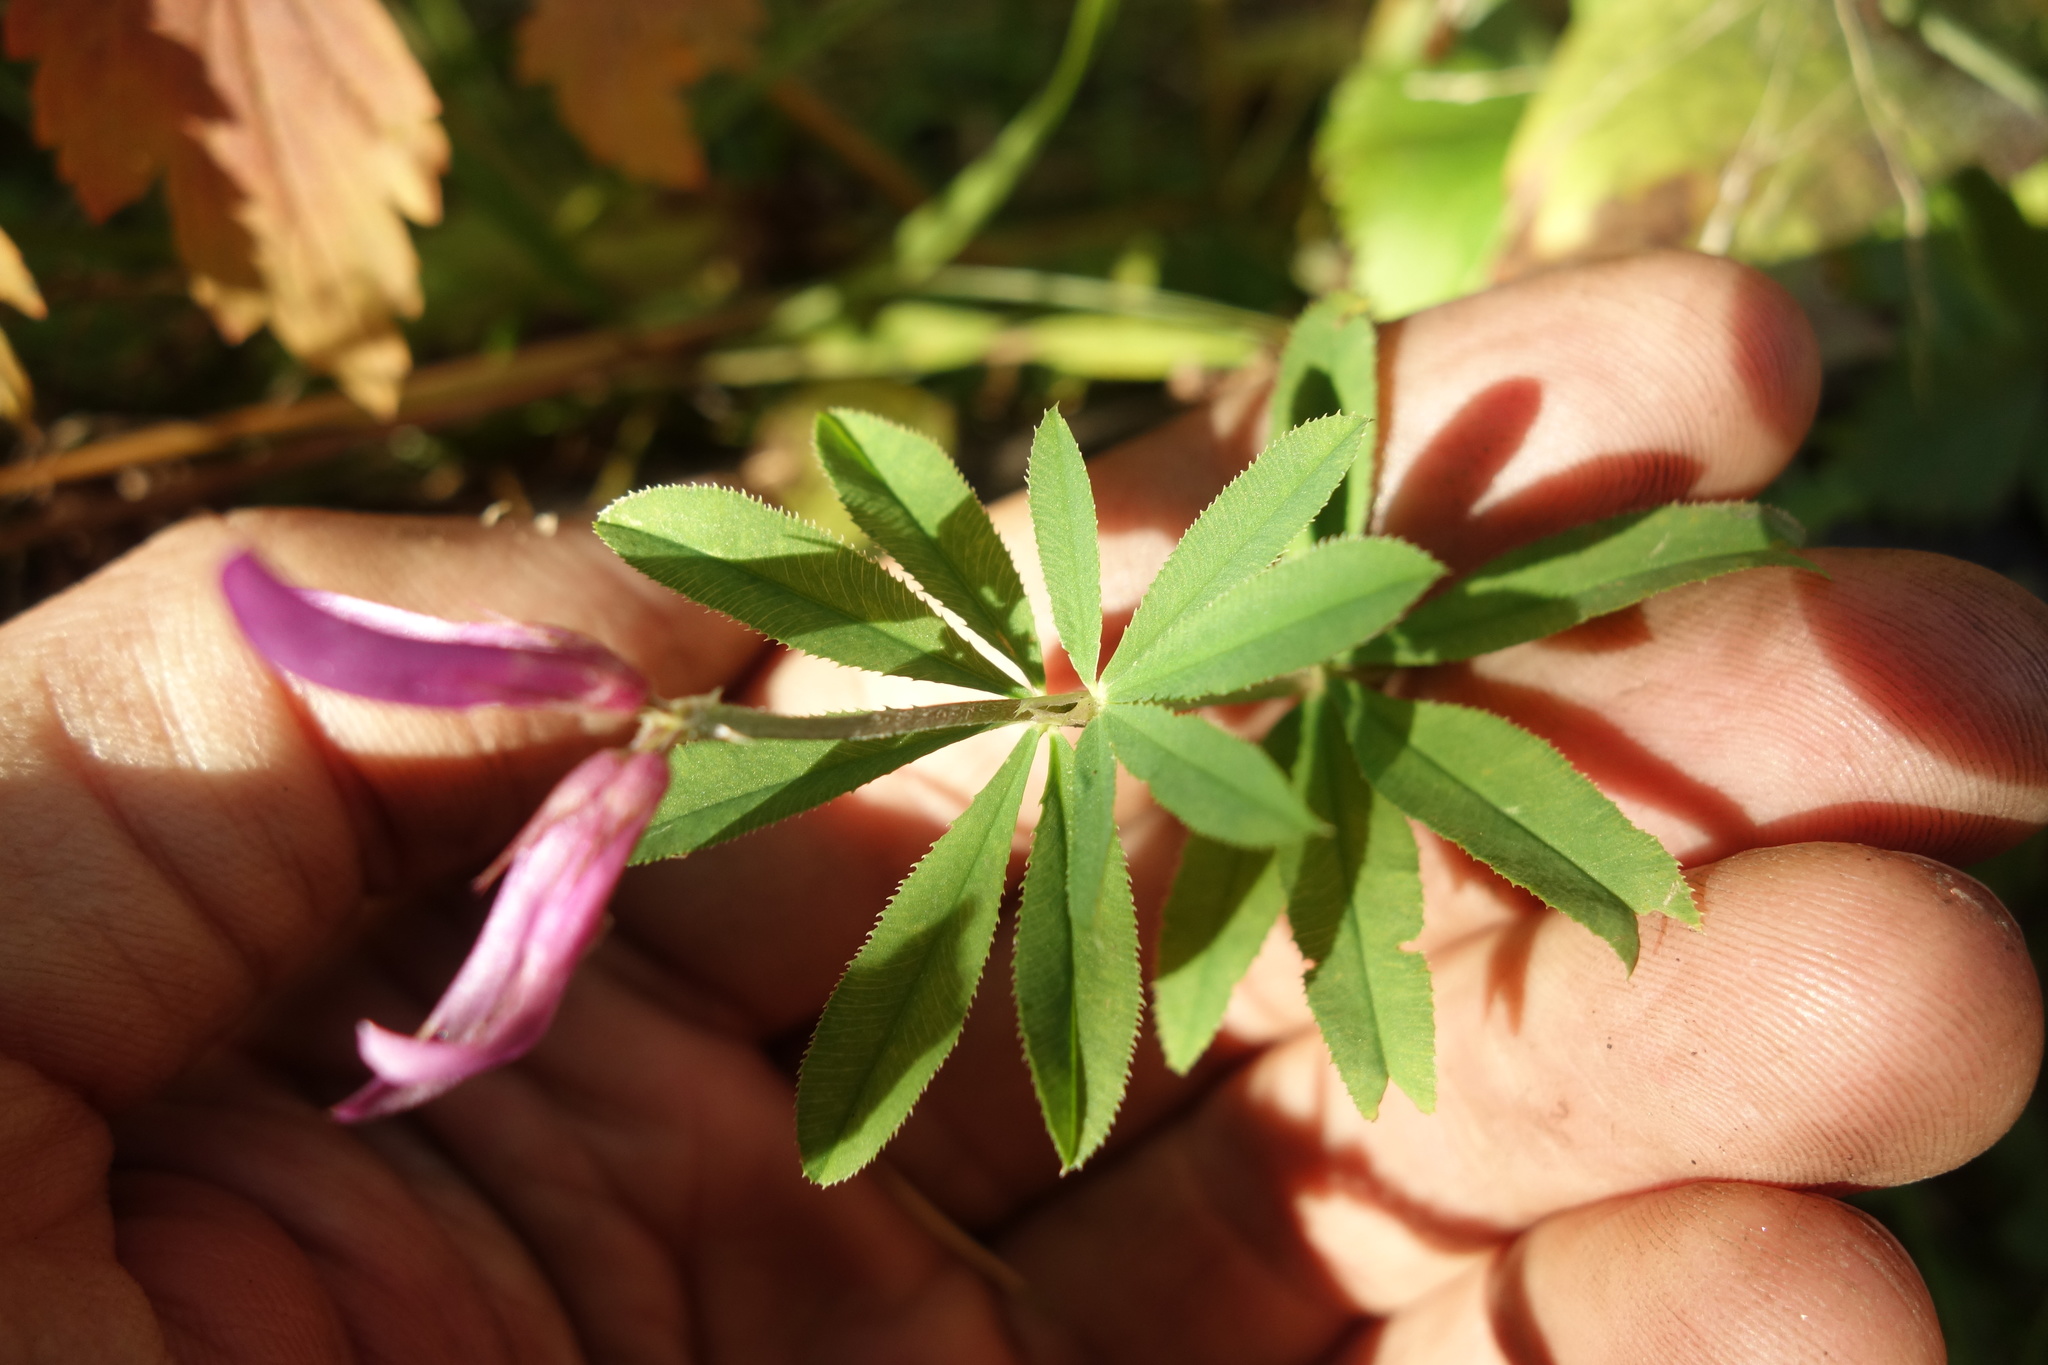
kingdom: Plantae
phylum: Tracheophyta
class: Magnoliopsida
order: Fabales
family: Fabaceae
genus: Trifolium
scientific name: Trifolium lupinaster
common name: Lupine clover
